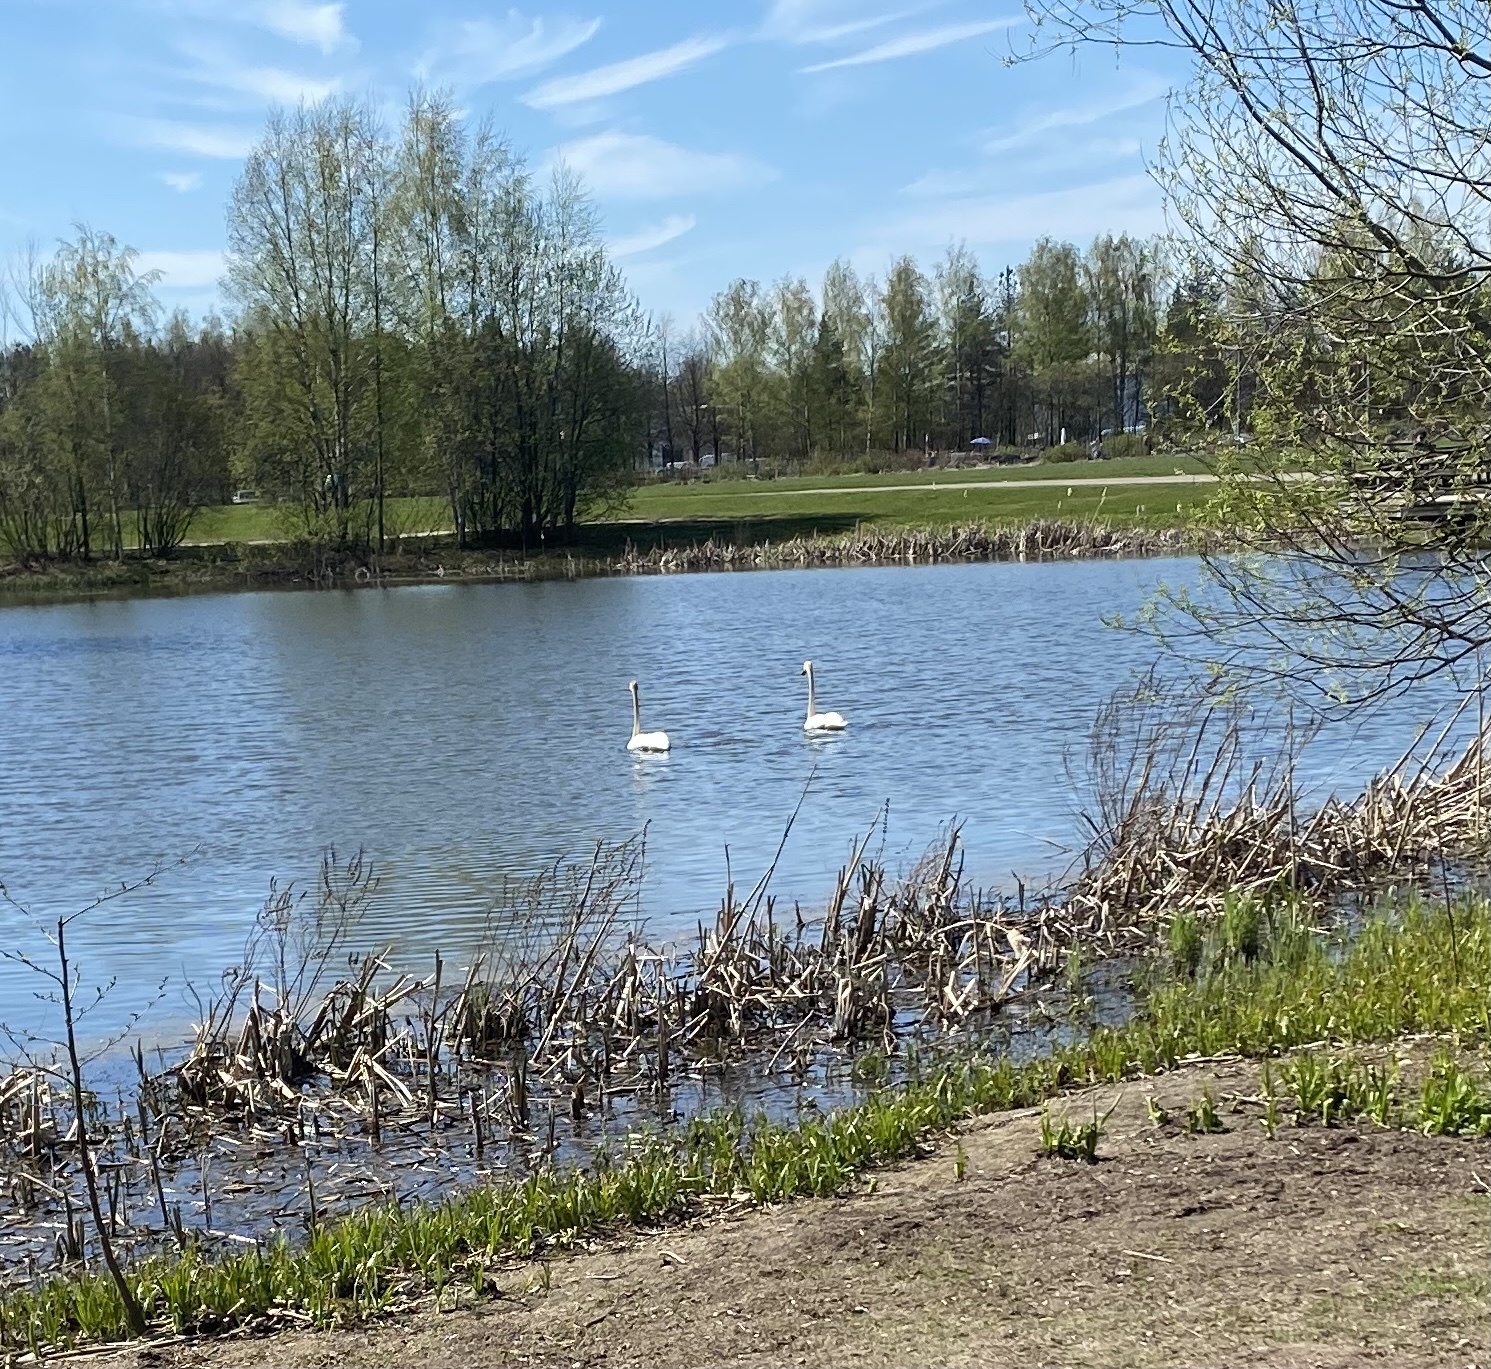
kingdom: Animalia
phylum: Chordata
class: Aves
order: Anseriformes
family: Anatidae
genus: Cygnus
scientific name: Cygnus cygnus
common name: Whooper swan
